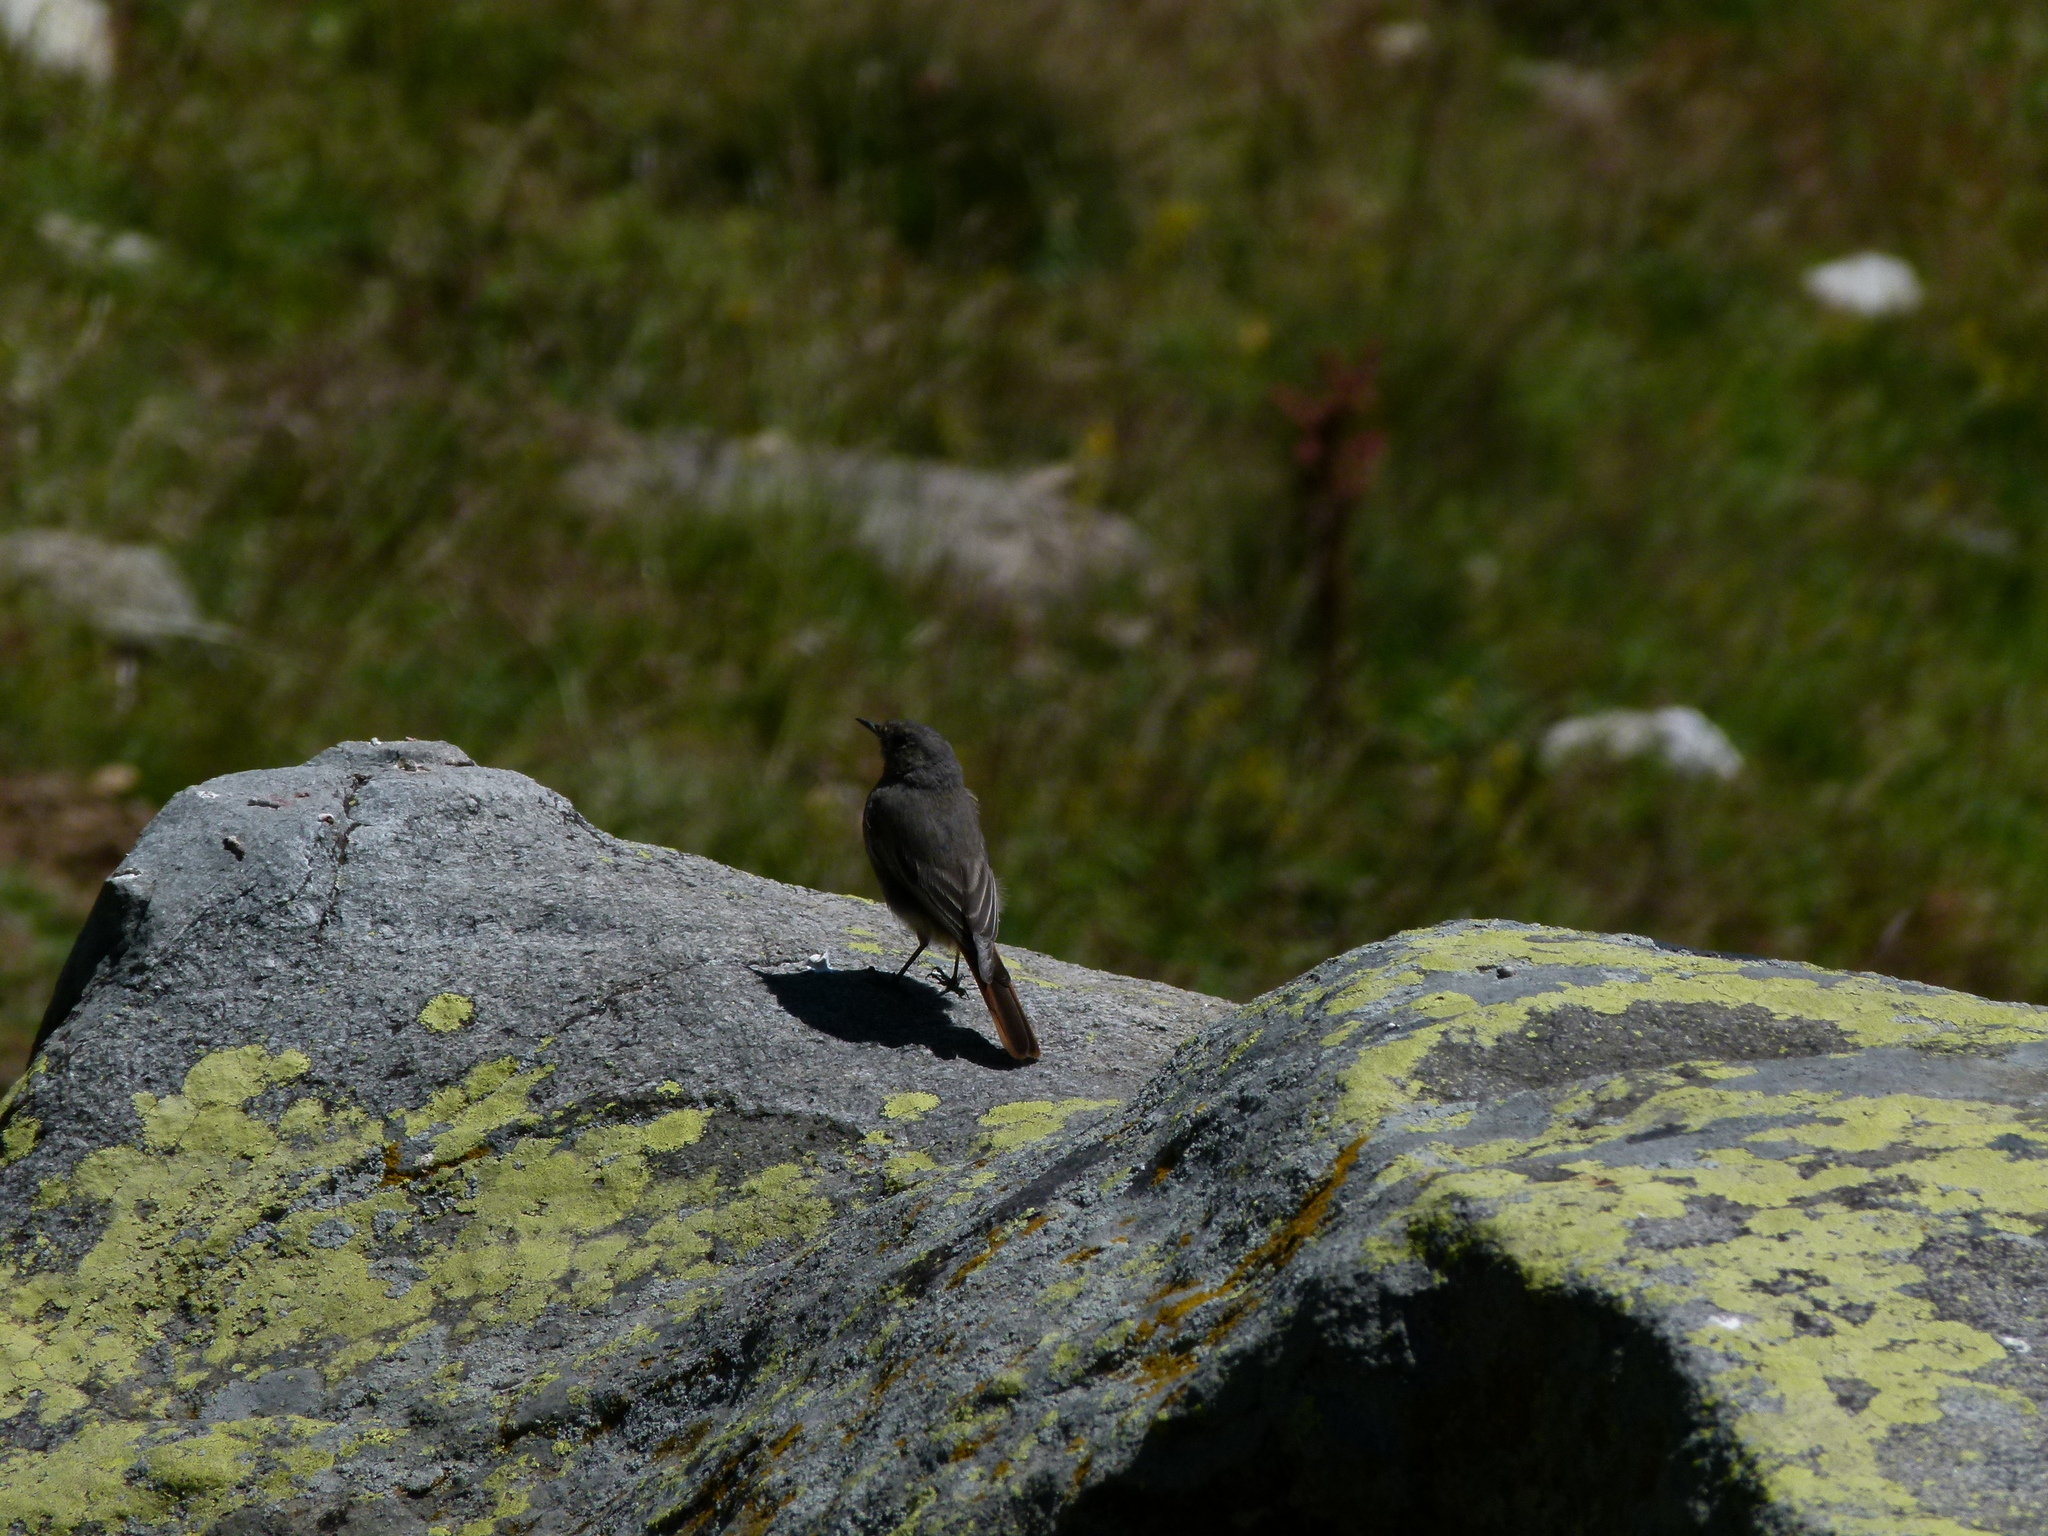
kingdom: Animalia
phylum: Chordata
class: Aves
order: Passeriformes
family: Muscicapidae
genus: Phoenicurus
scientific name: Phoenicurus ochruros
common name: Black redstart
